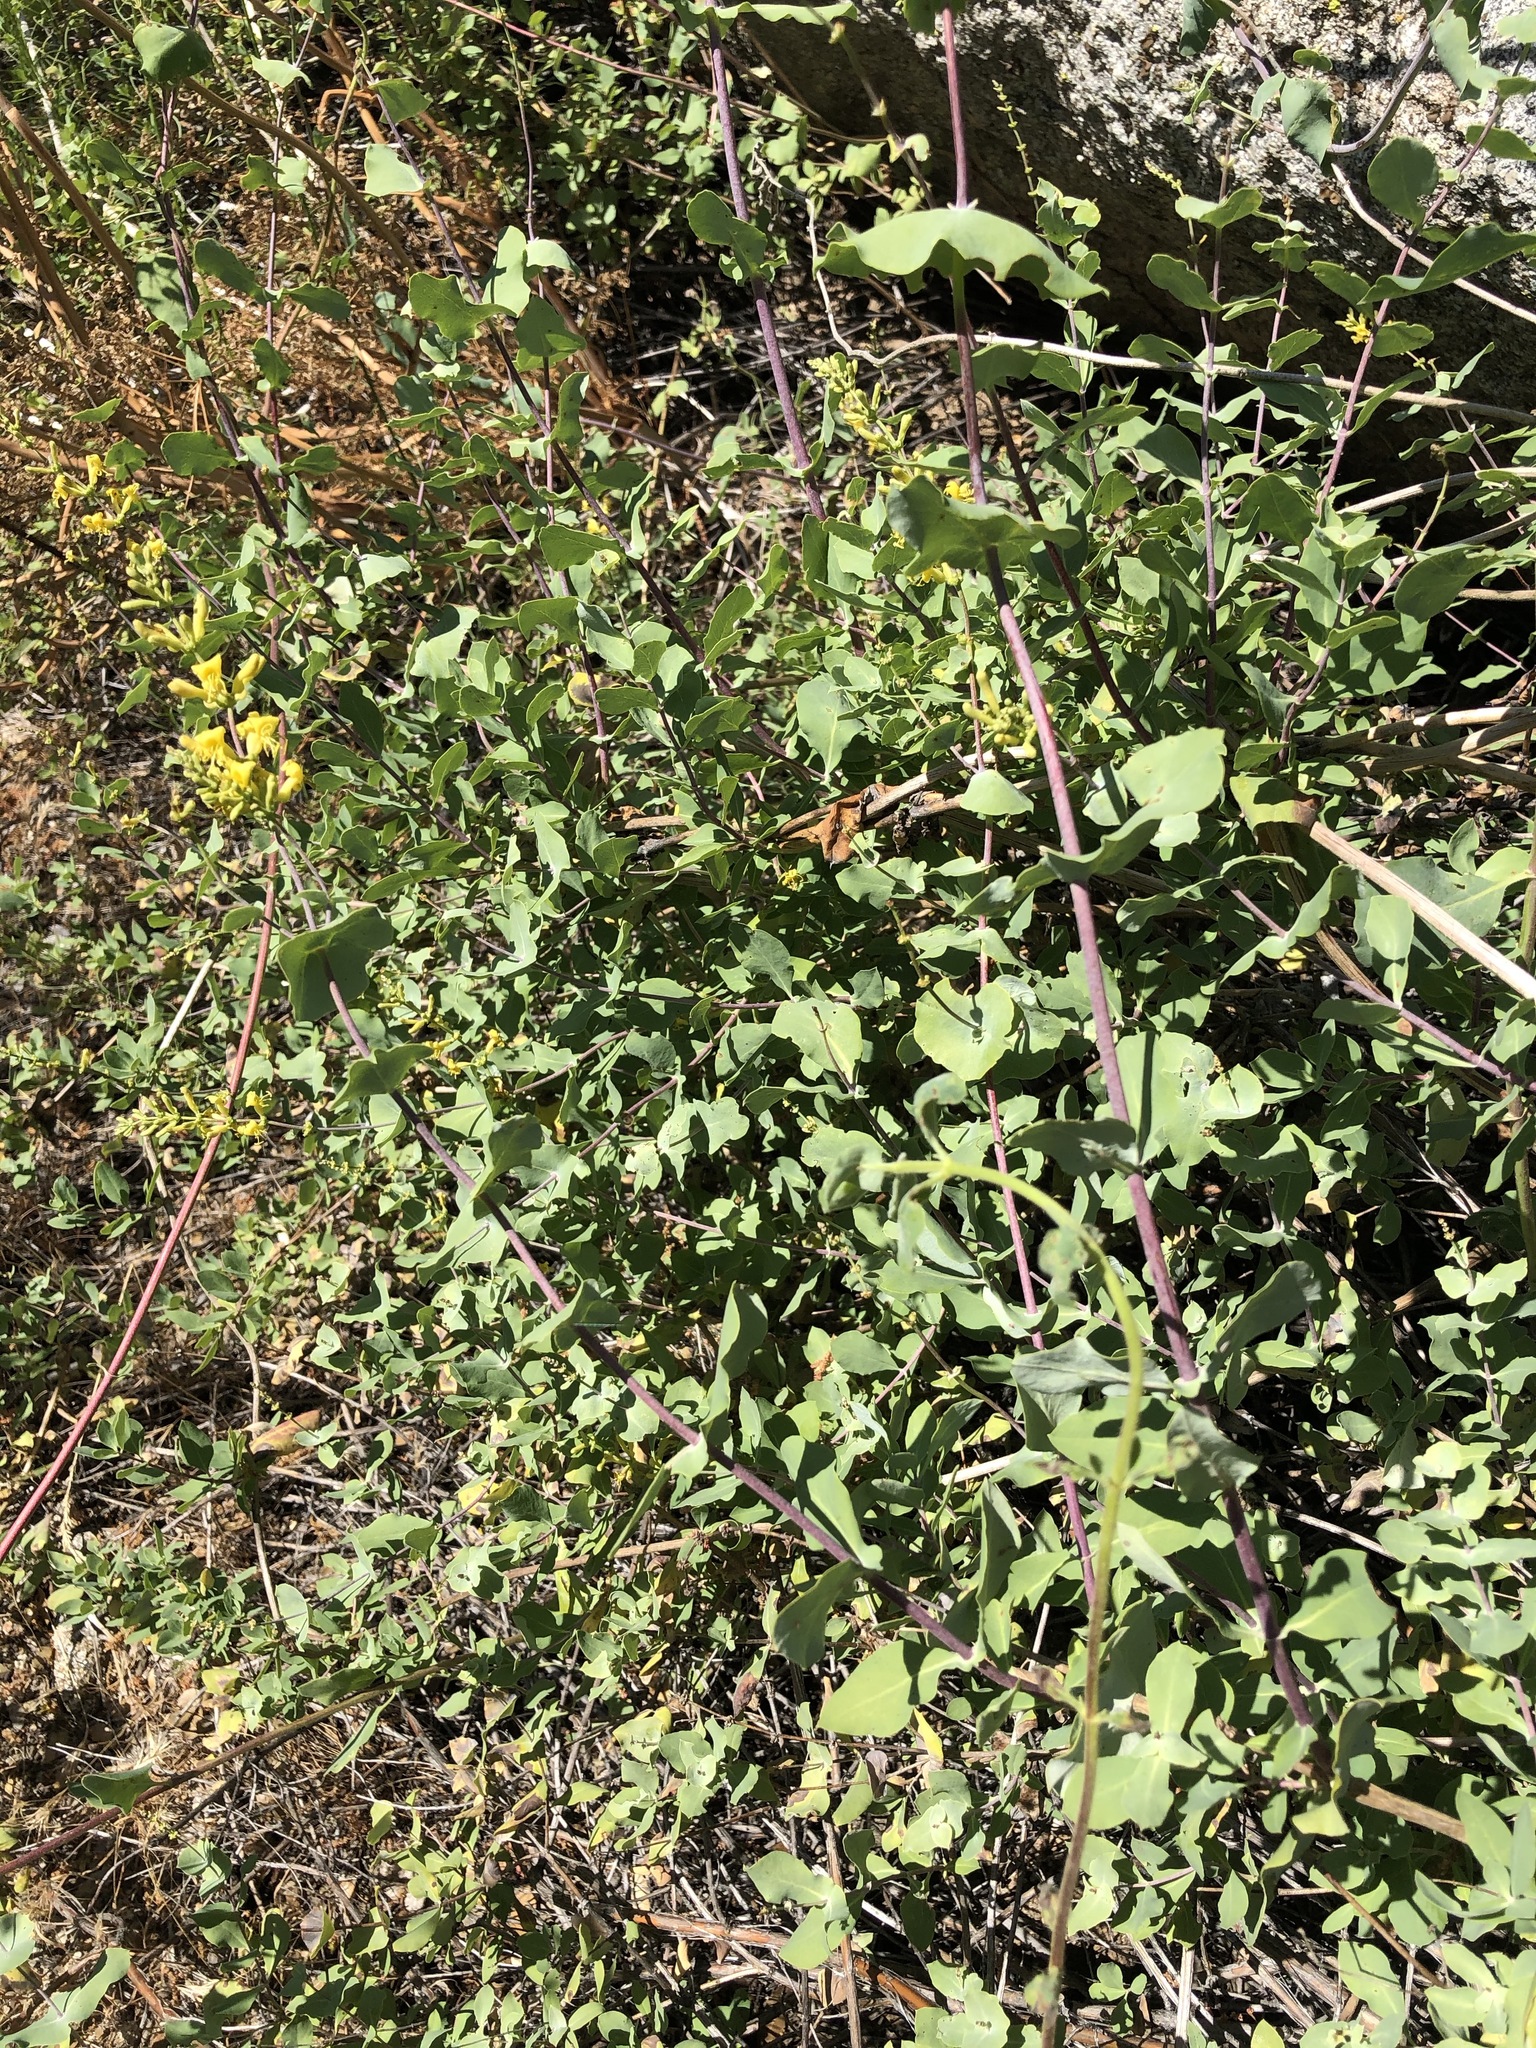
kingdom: Plantae
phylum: Tracheophyta
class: Magnoliopsida
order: Dipsacales
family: Caprifoliaceae
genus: Lonicera
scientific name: Lonicera interrupta
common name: Chaparral honeysuckle
